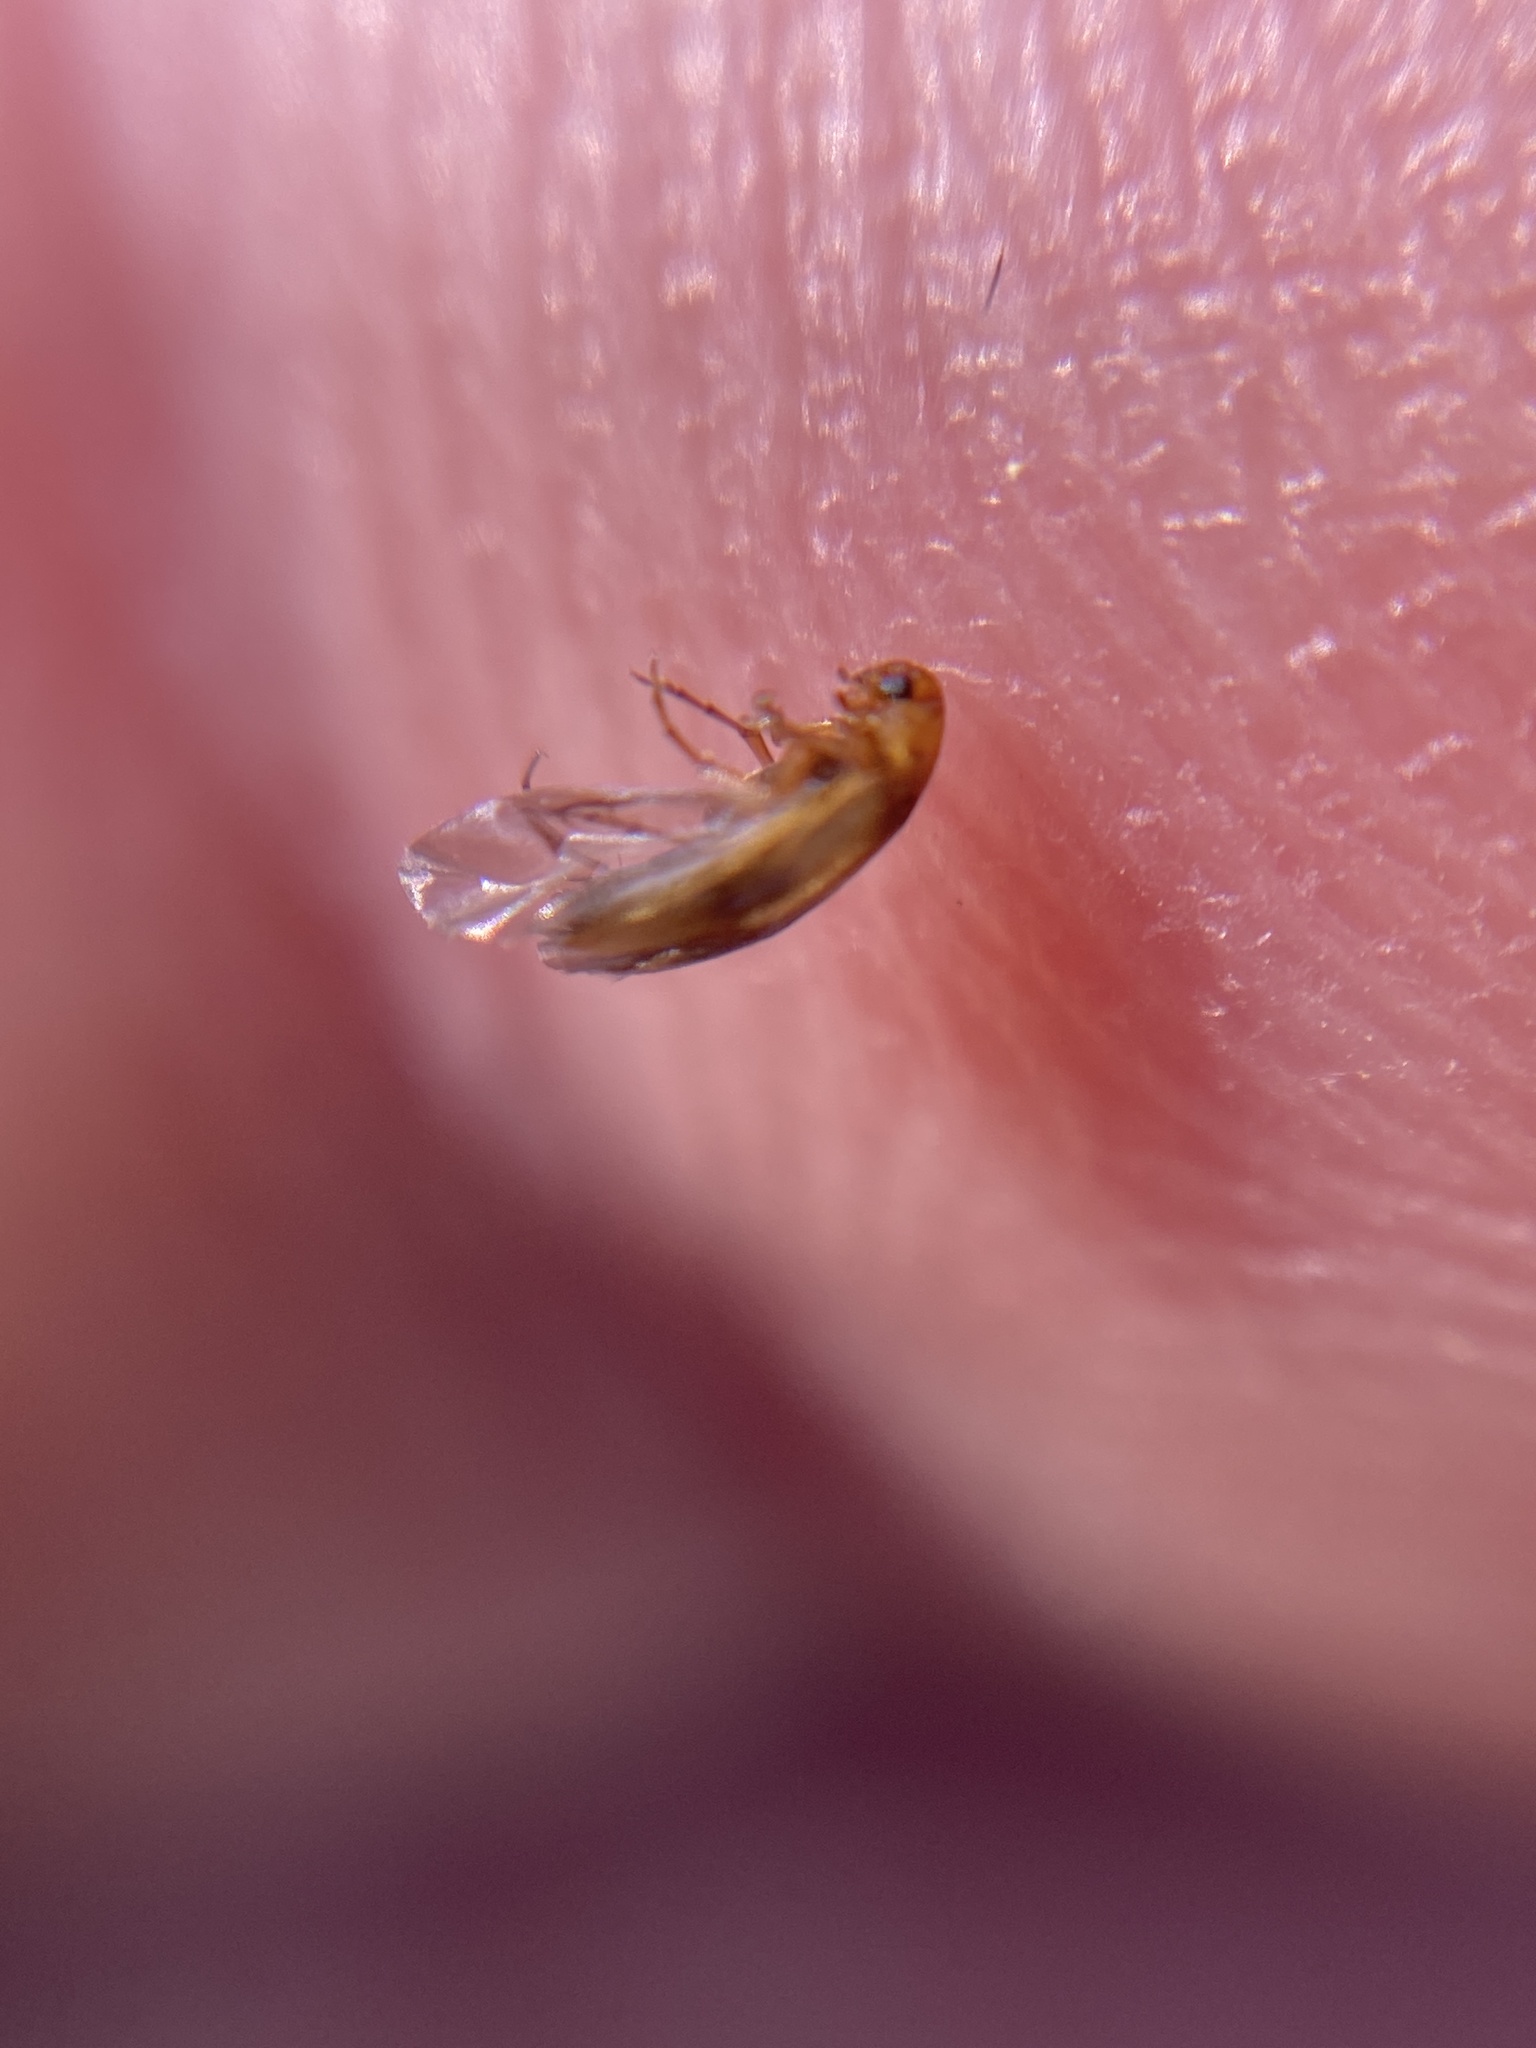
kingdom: Animalia
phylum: Arthropoda
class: Insecta
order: Coleoptera
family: Scraptiidae
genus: Anaspis
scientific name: Anaspis maculata
